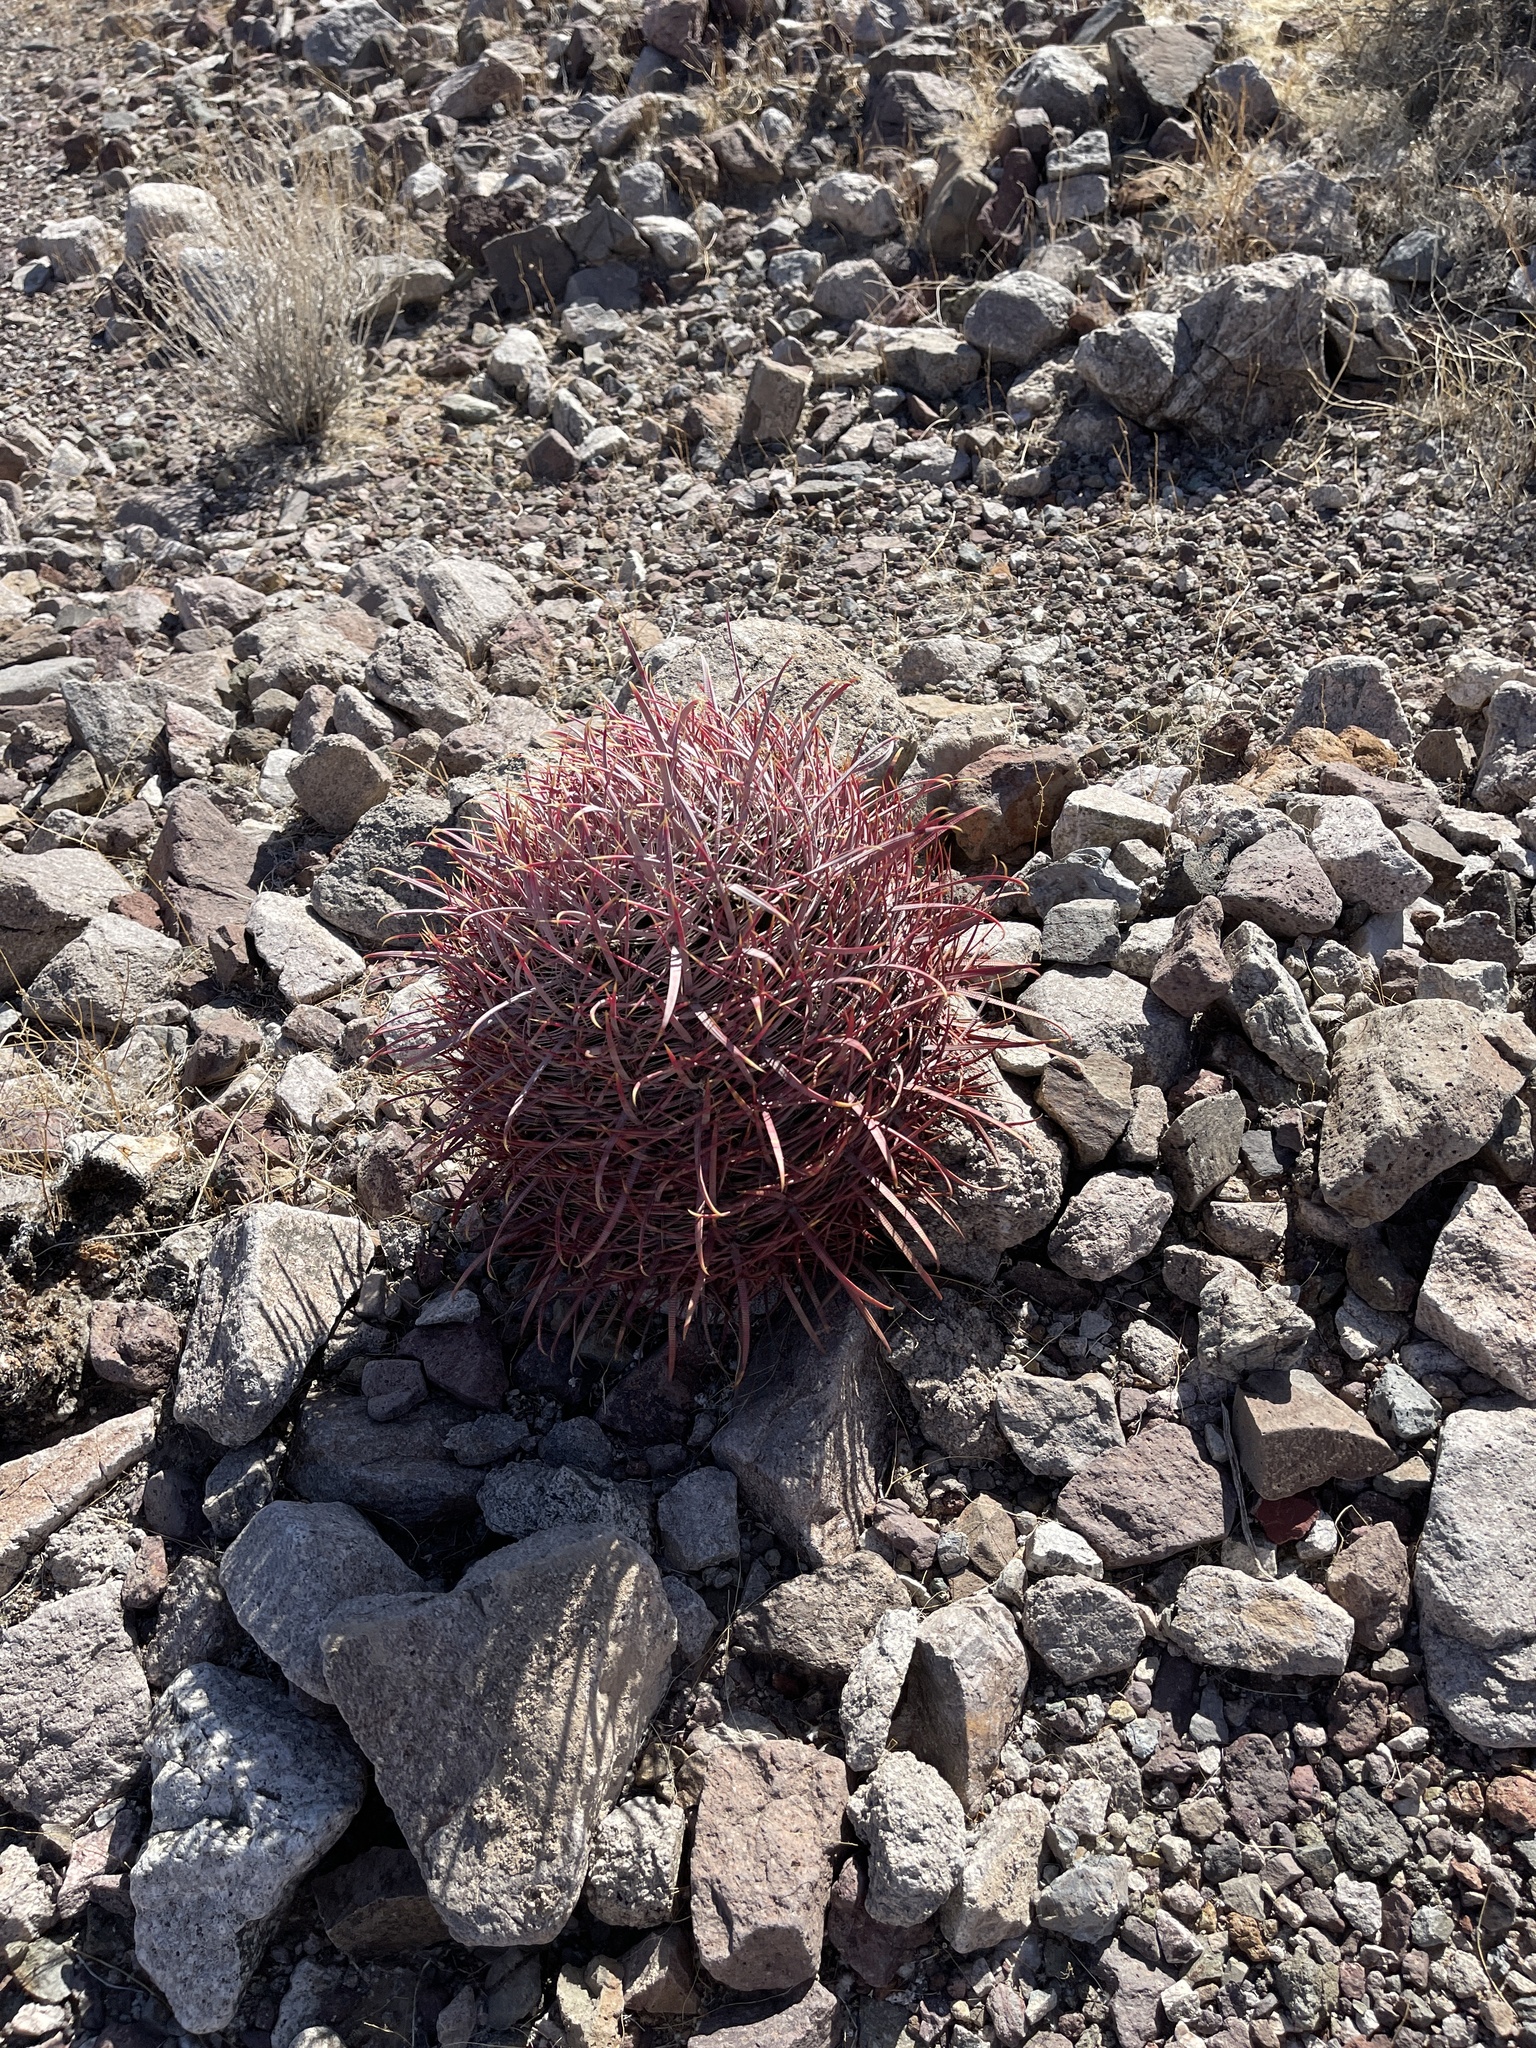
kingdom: Plantae
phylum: Tracheophyta
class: Magnoliopsida
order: Caryophyllales
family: Cactaceae
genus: Ferocactus
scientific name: Ferocactus cylindraceus
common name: California barrel cactus
